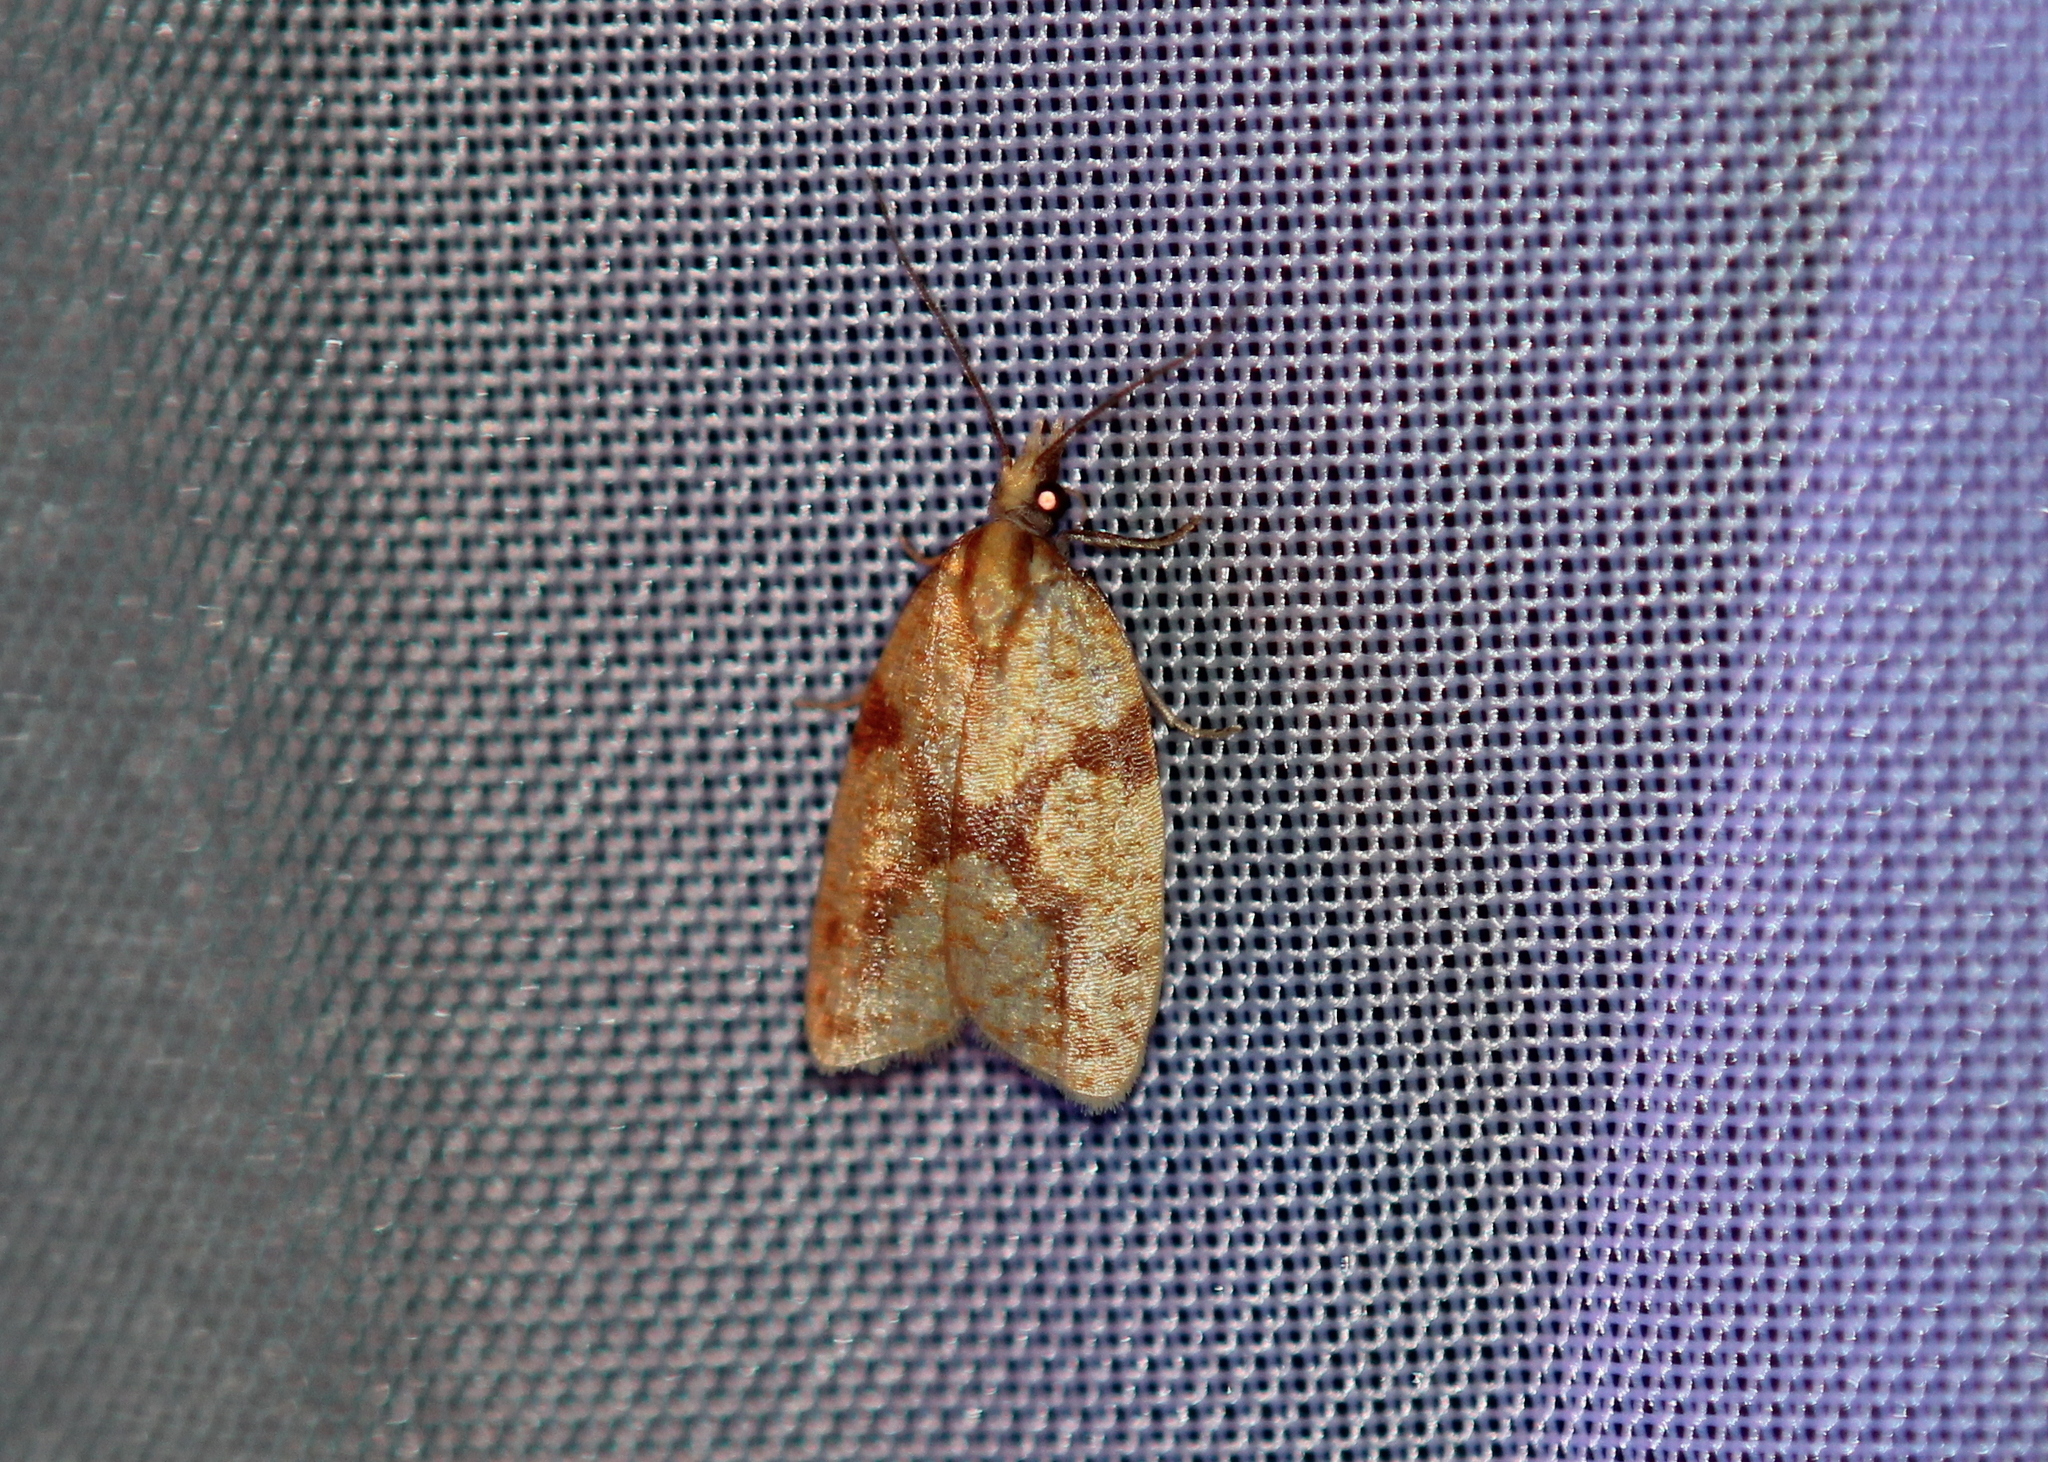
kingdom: Animalia
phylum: Arthropoda
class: Insecta
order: Lepidoptera
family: Tortricidae
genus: Sparganothis
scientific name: Sparganothis sulfureana
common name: Sparganothis fruitworm moth
